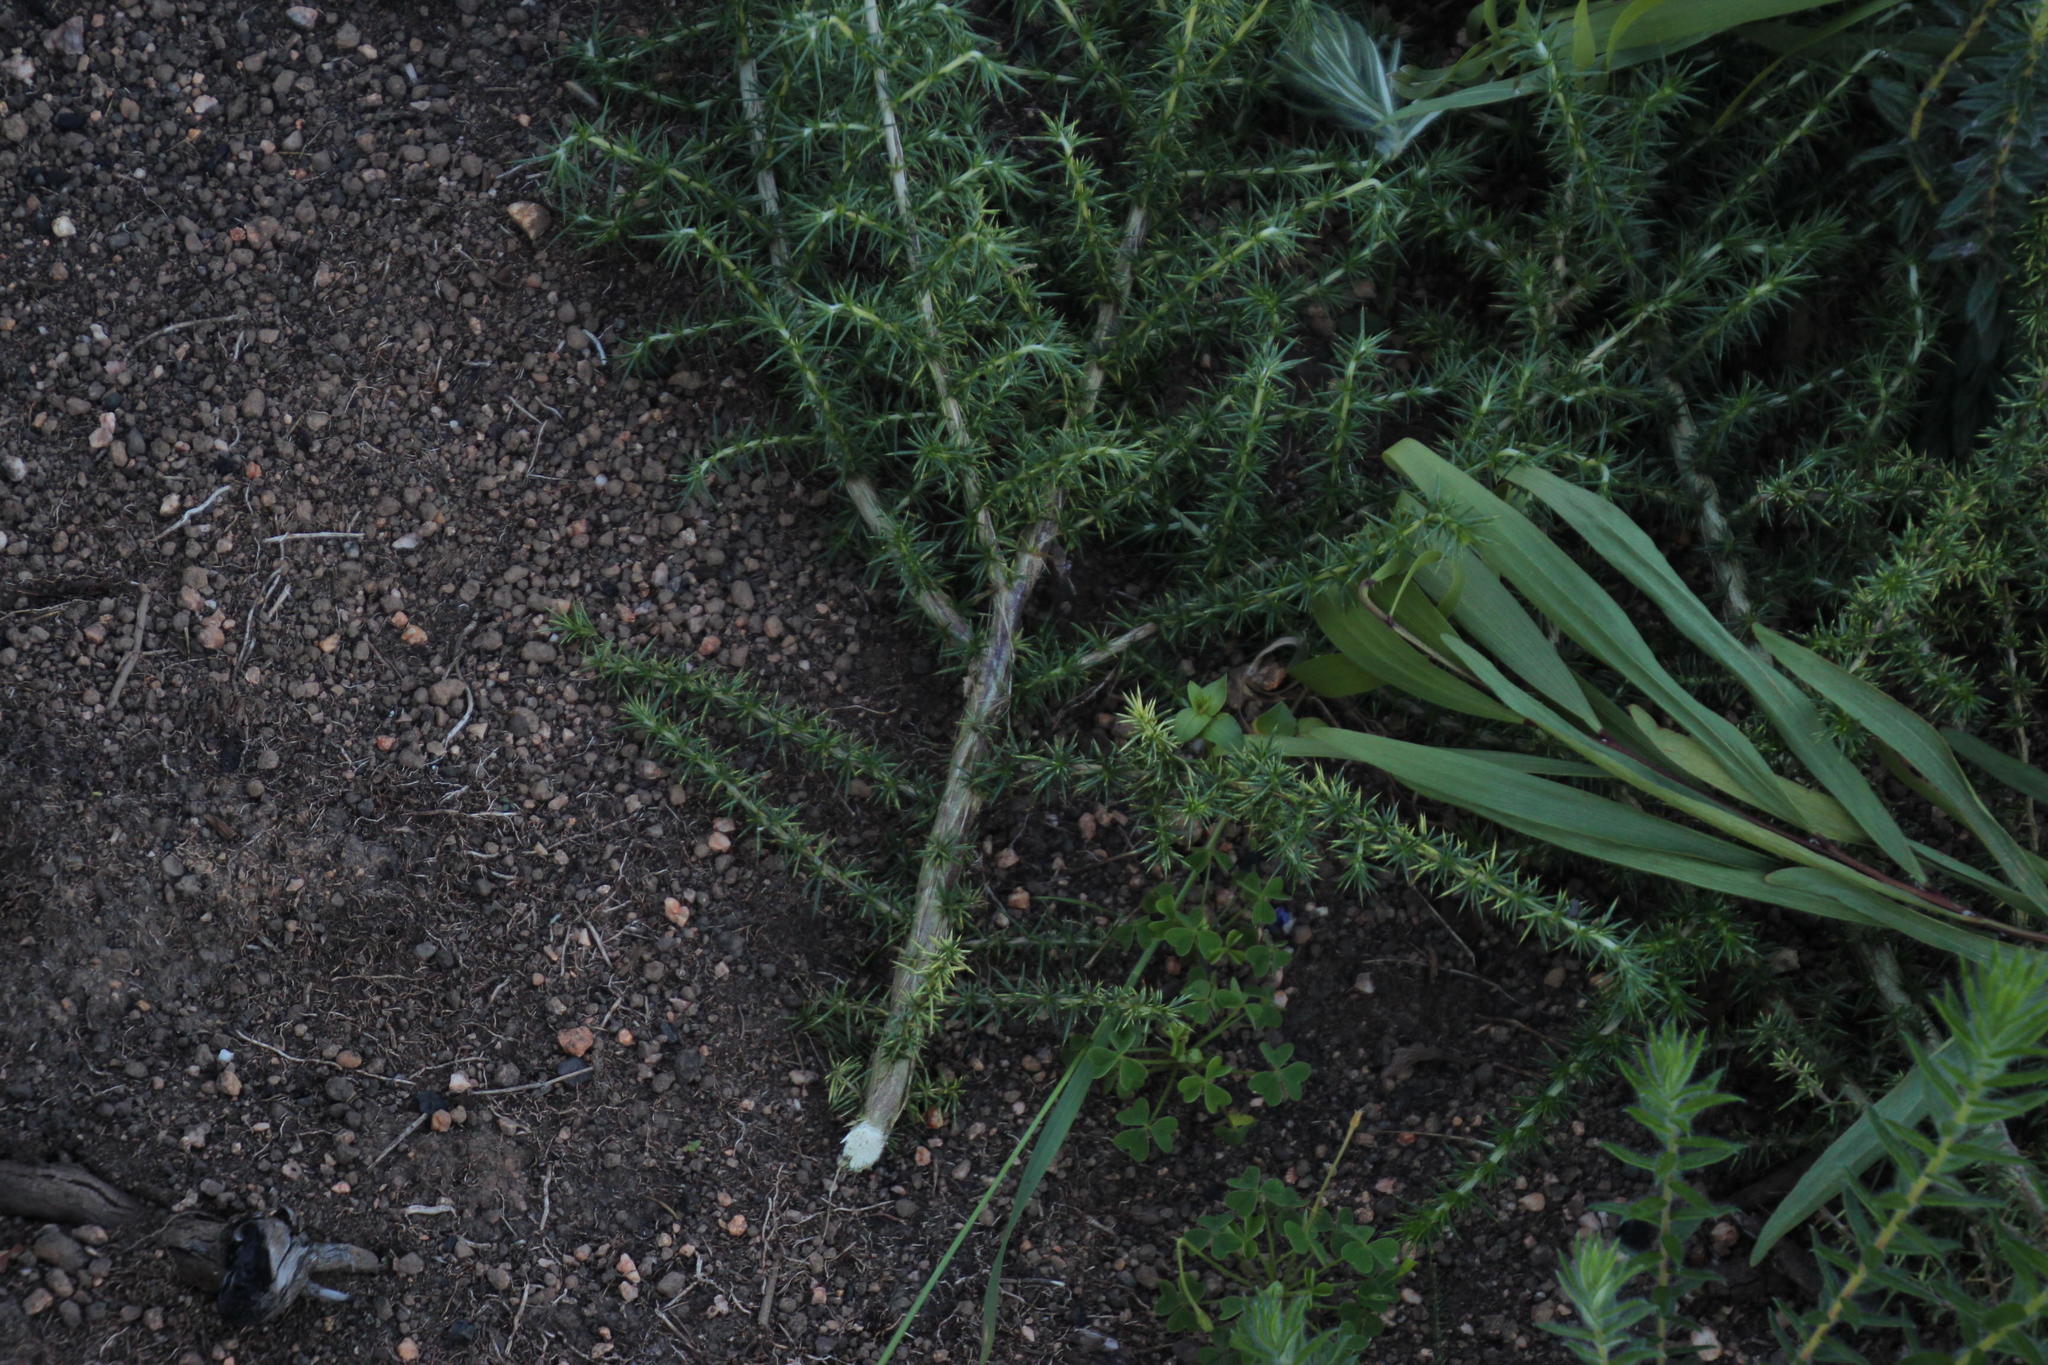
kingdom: Plantae
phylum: Tracheophyta
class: Magnoliopsida
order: Fabales
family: Fabaceae
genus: Aspalathus
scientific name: Aspalathus chenopoda
